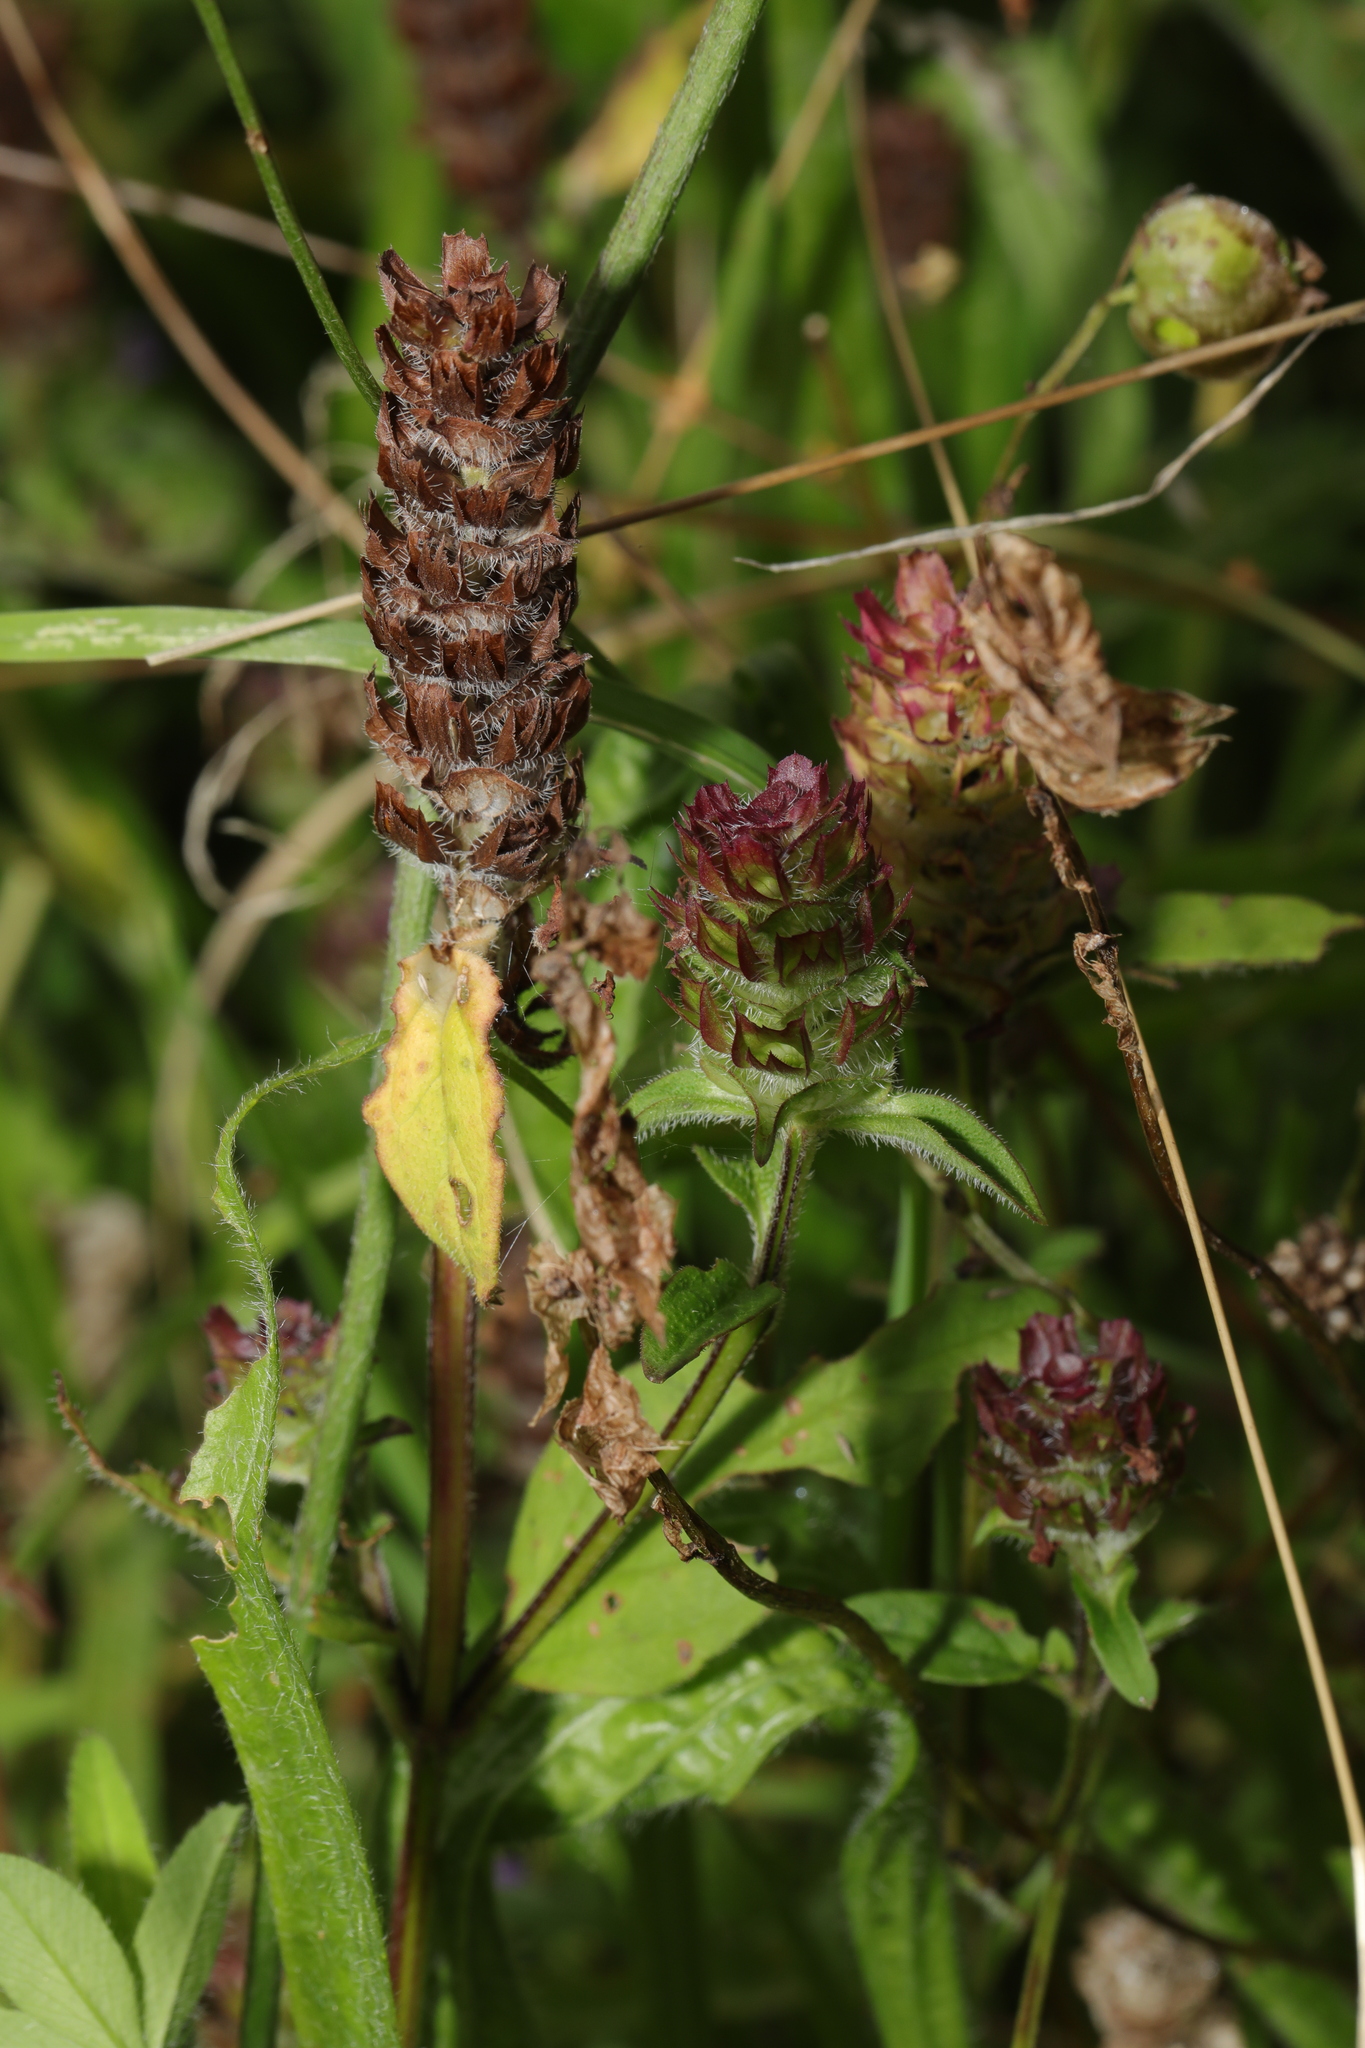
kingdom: Plantae
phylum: Tracheophyta
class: Magnoliopsida
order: Lamiales
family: Lamiaceae
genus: Prunella
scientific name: Prunella vulgaris
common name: Heal-all
